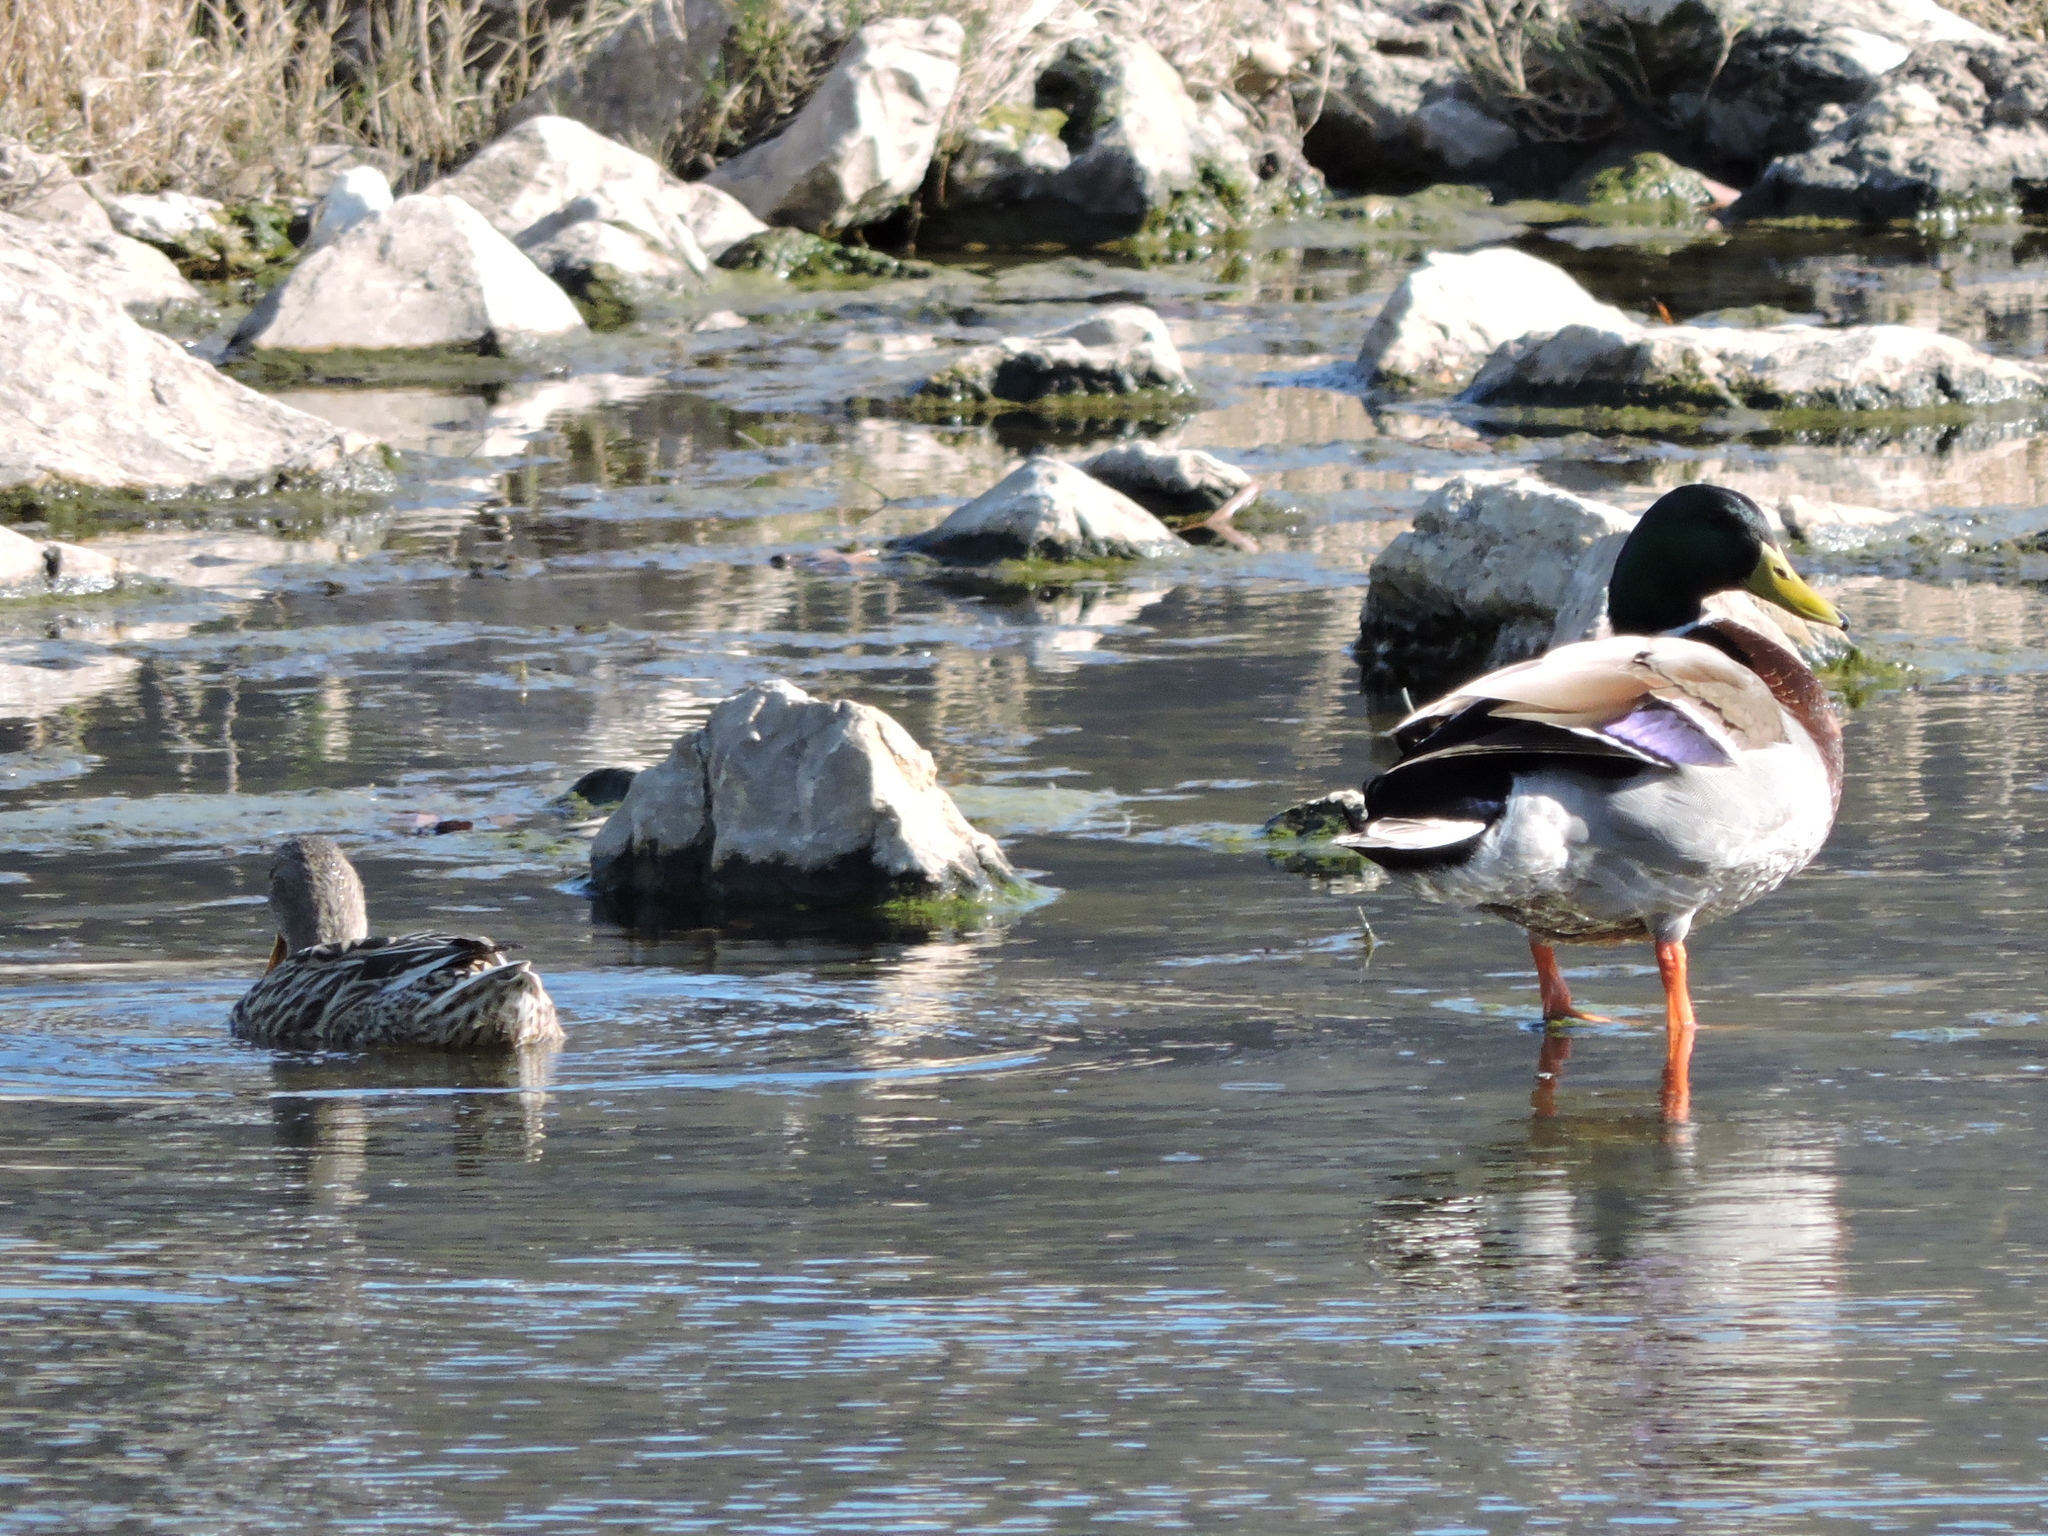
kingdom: Animalia
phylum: Chordata
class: Aves
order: Anseriformes
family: Anatidae
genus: Anas
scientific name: Anas platyrhynchos
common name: Mallard
